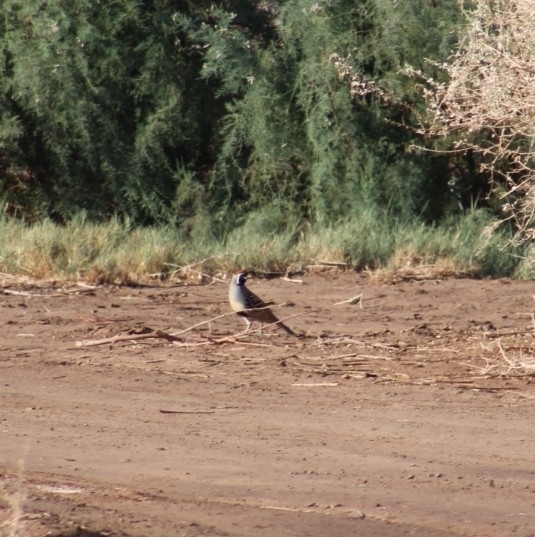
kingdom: Animalia
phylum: Chordata
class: Aves
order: Galliformes
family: Odontophoridae
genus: Callipepla
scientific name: Callipepla gambelii
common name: Gambel's quail
